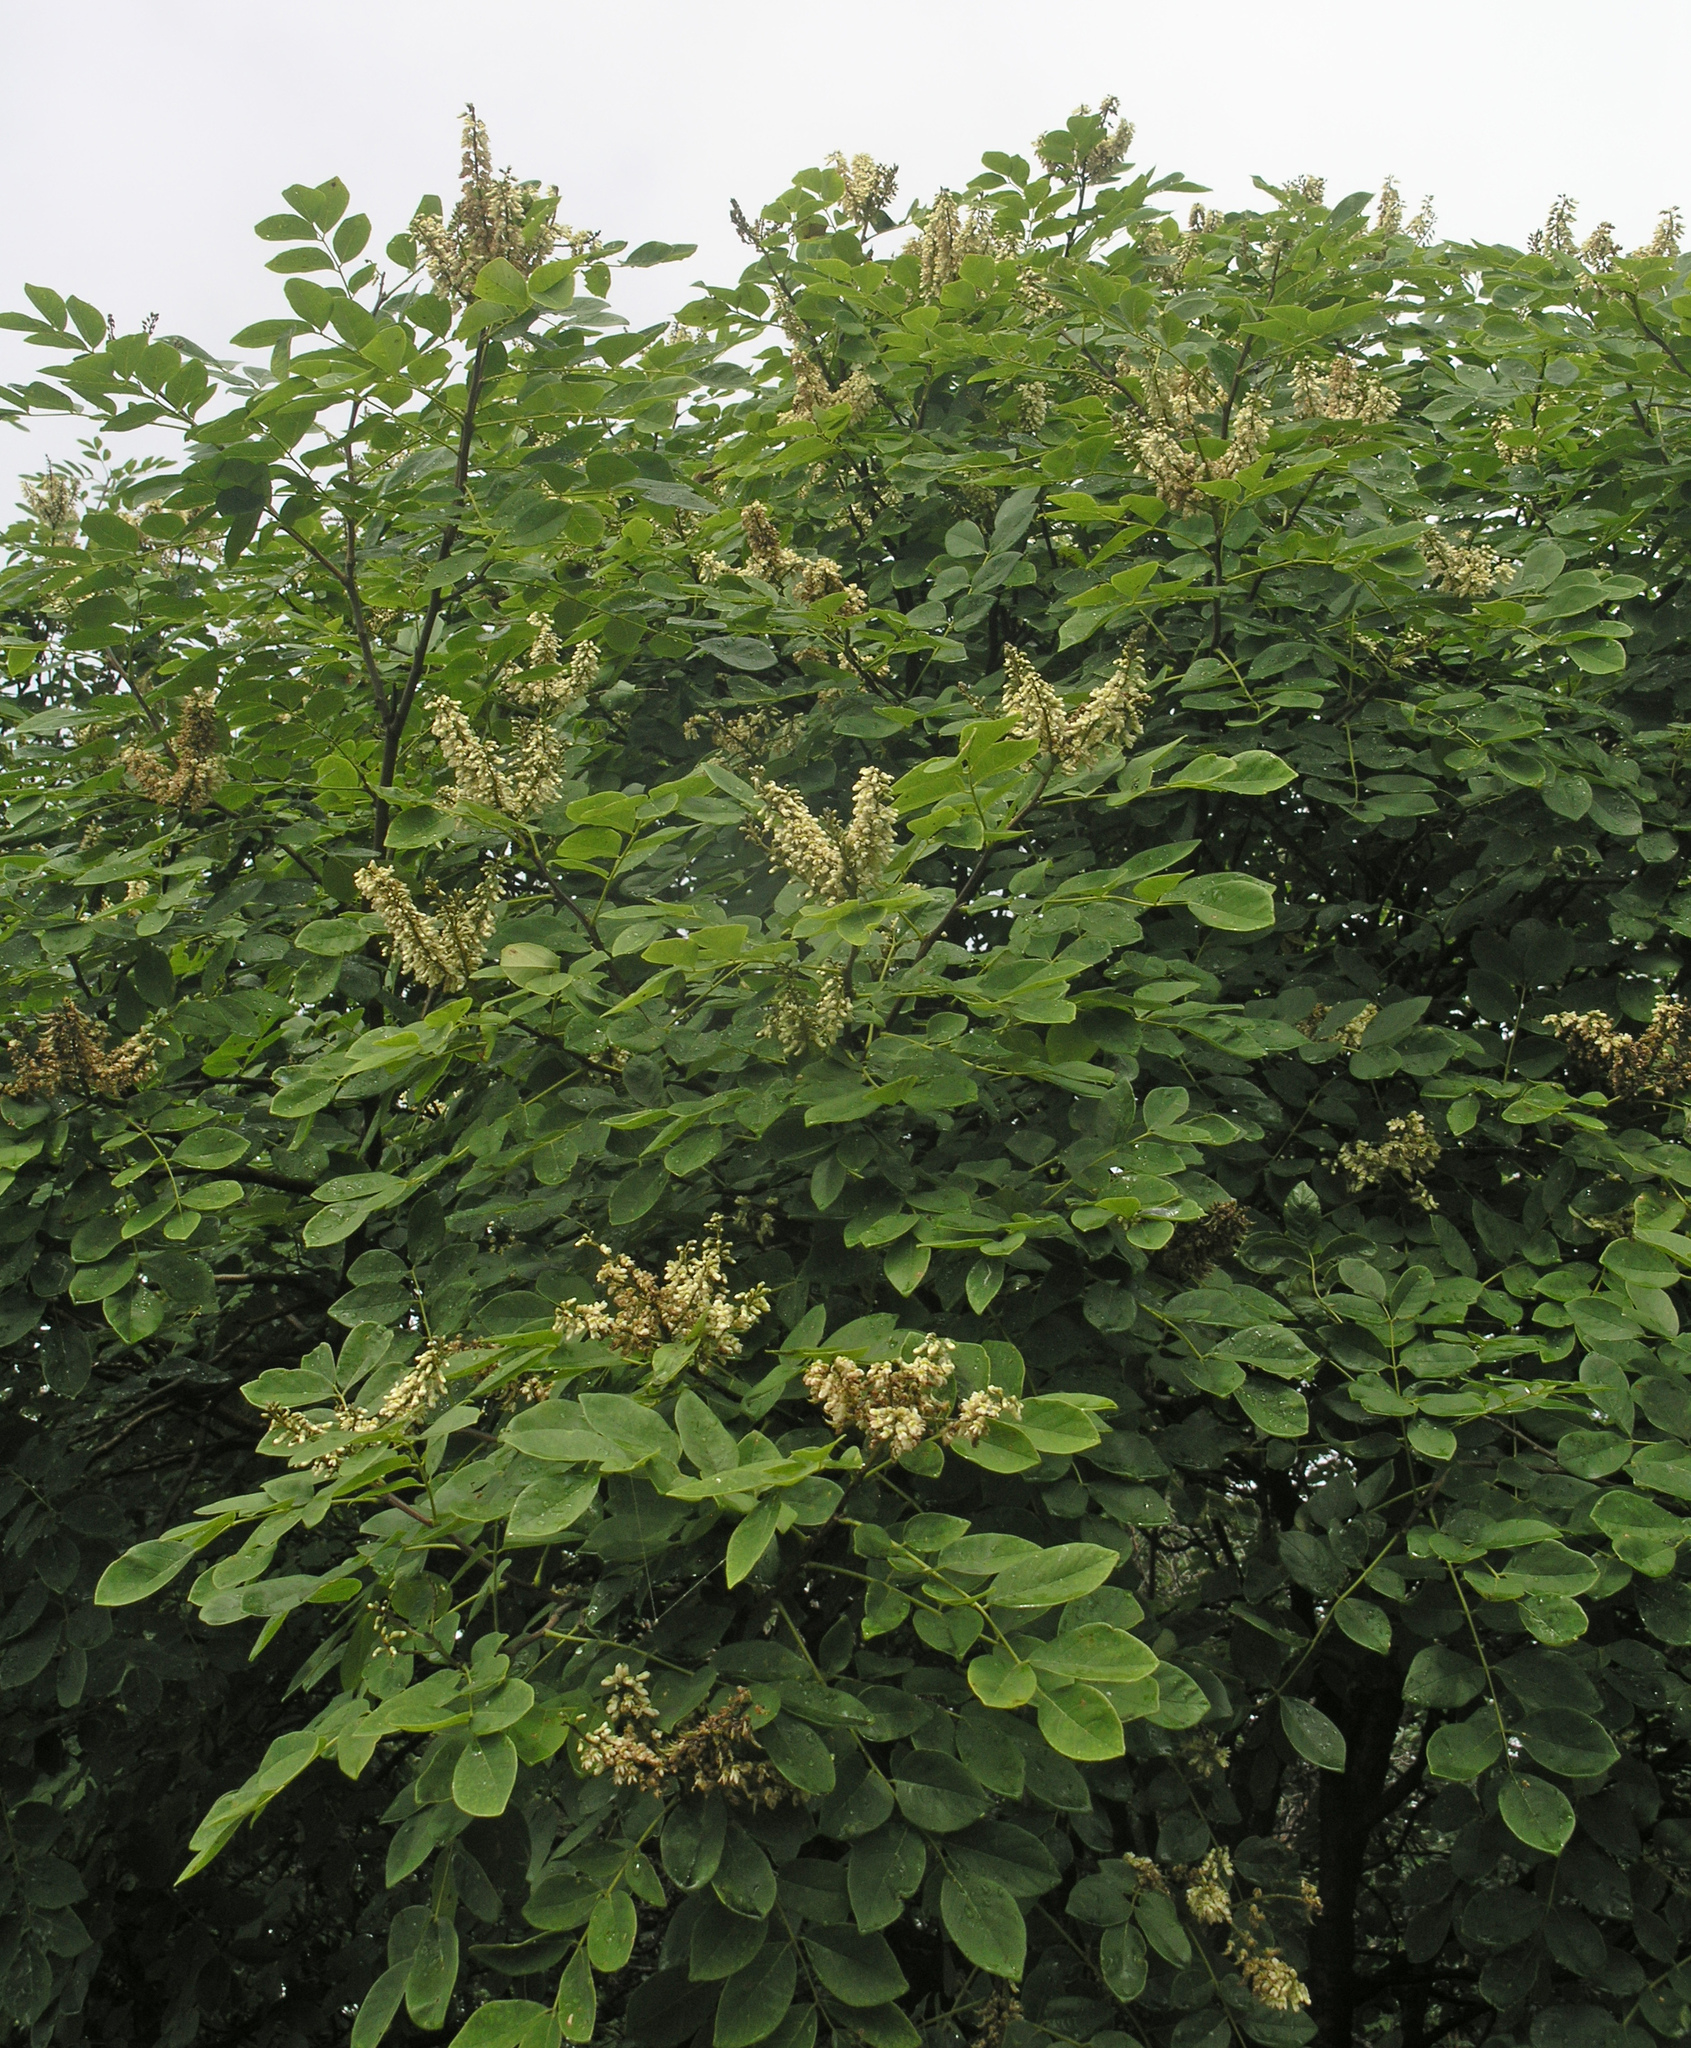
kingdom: Plantae
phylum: Tracheophyta
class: Magnoliopsida
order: Fabales
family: Fabaceae
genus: Maackia
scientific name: Maackia amurensis
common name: Amur maackia
